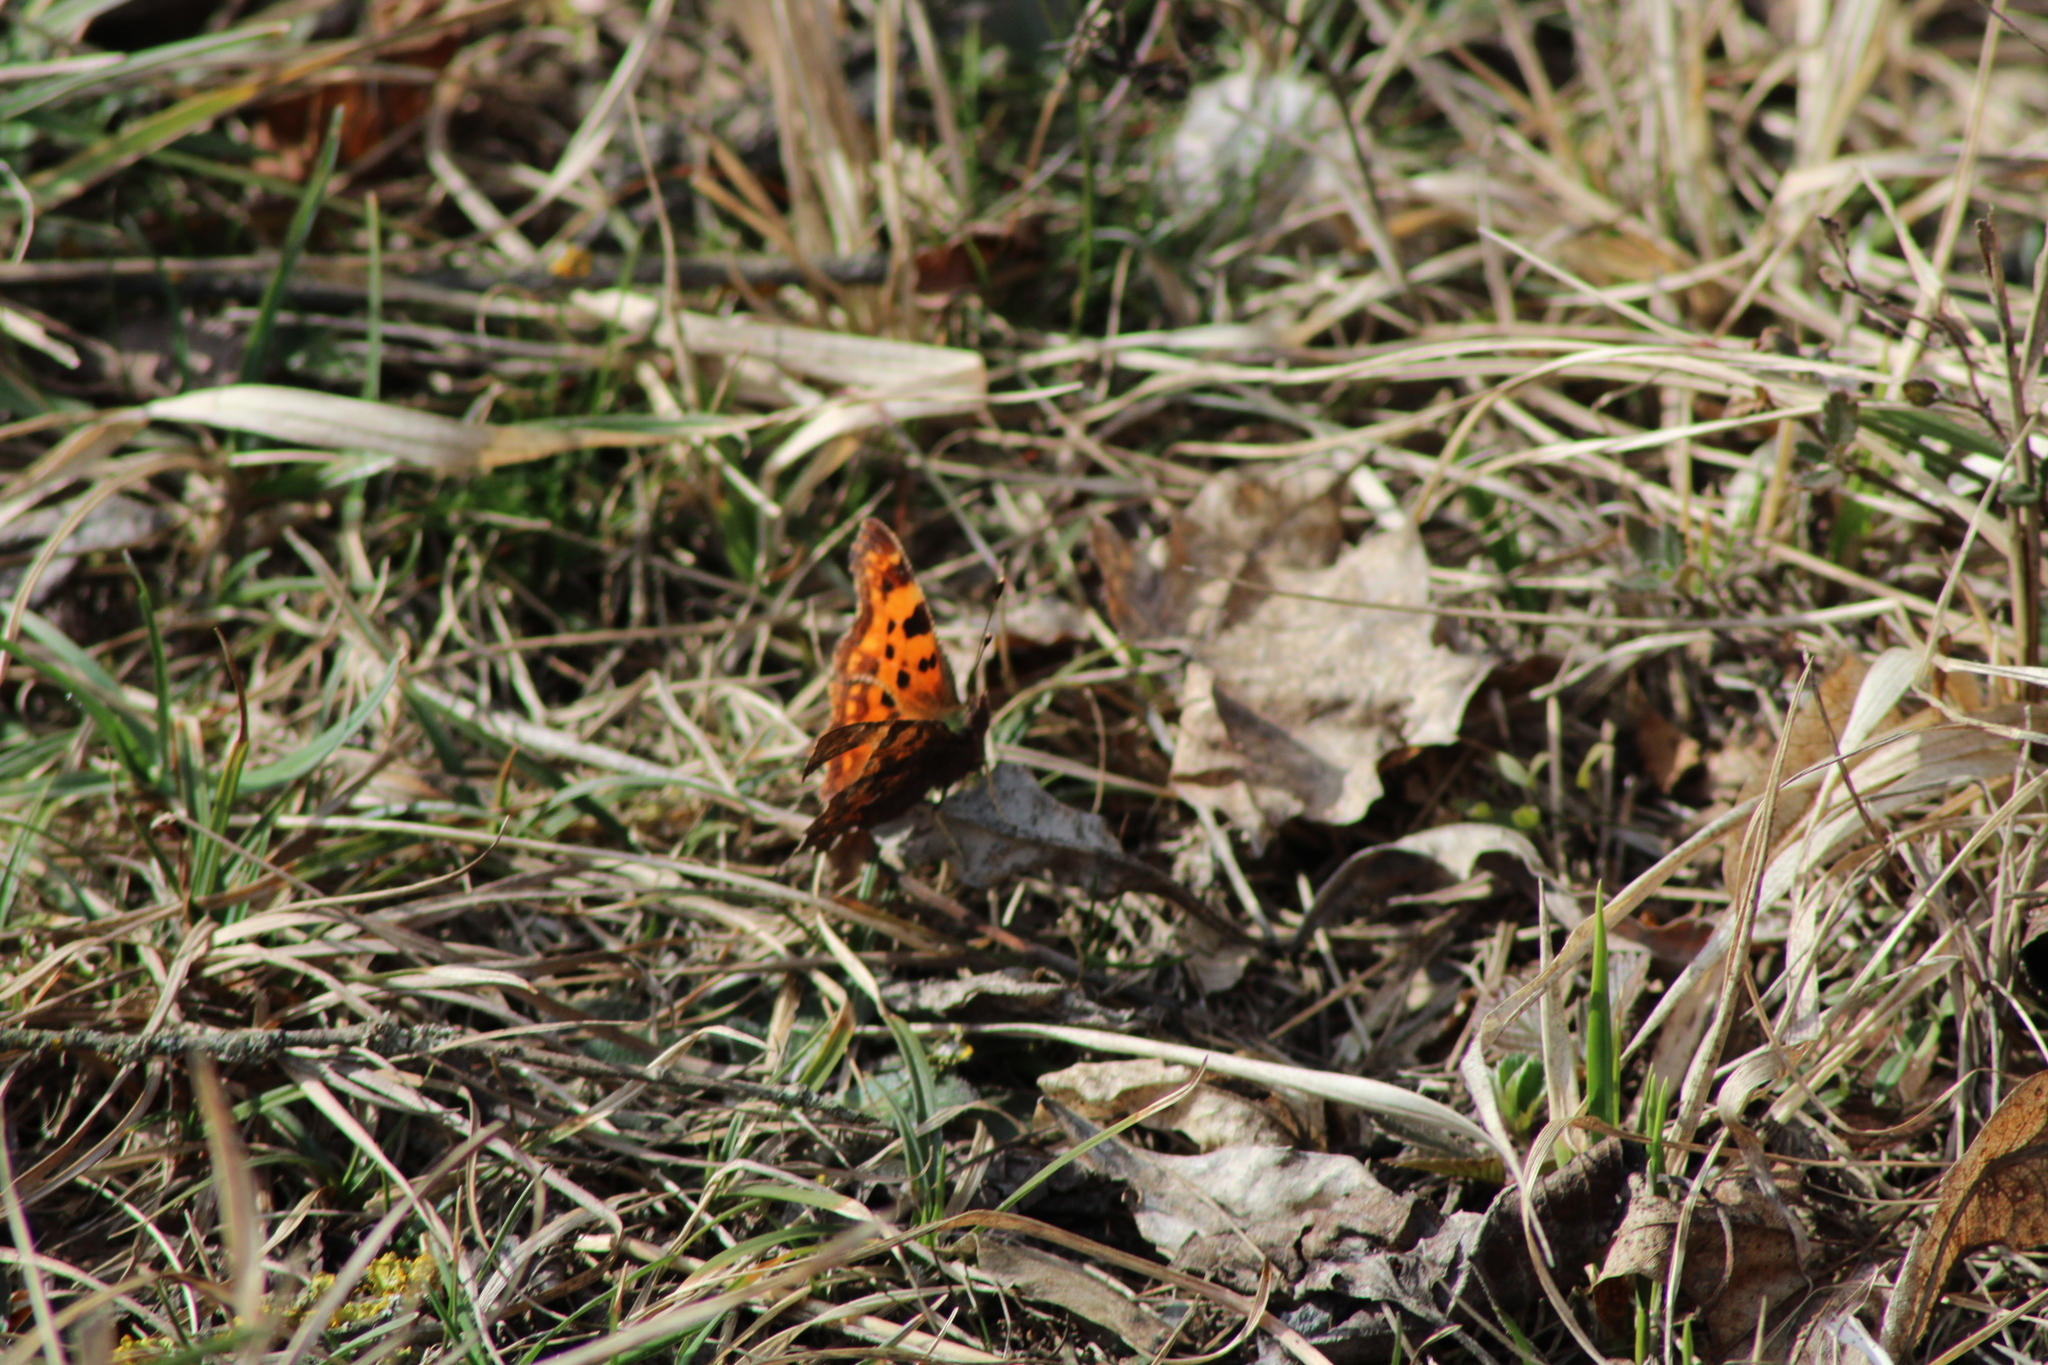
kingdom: Animalia
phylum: Arthropoda
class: Insecta
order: Lepidoptera
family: Nymphalidae
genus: Polygonia
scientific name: Polygonia c-album
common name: Comma
